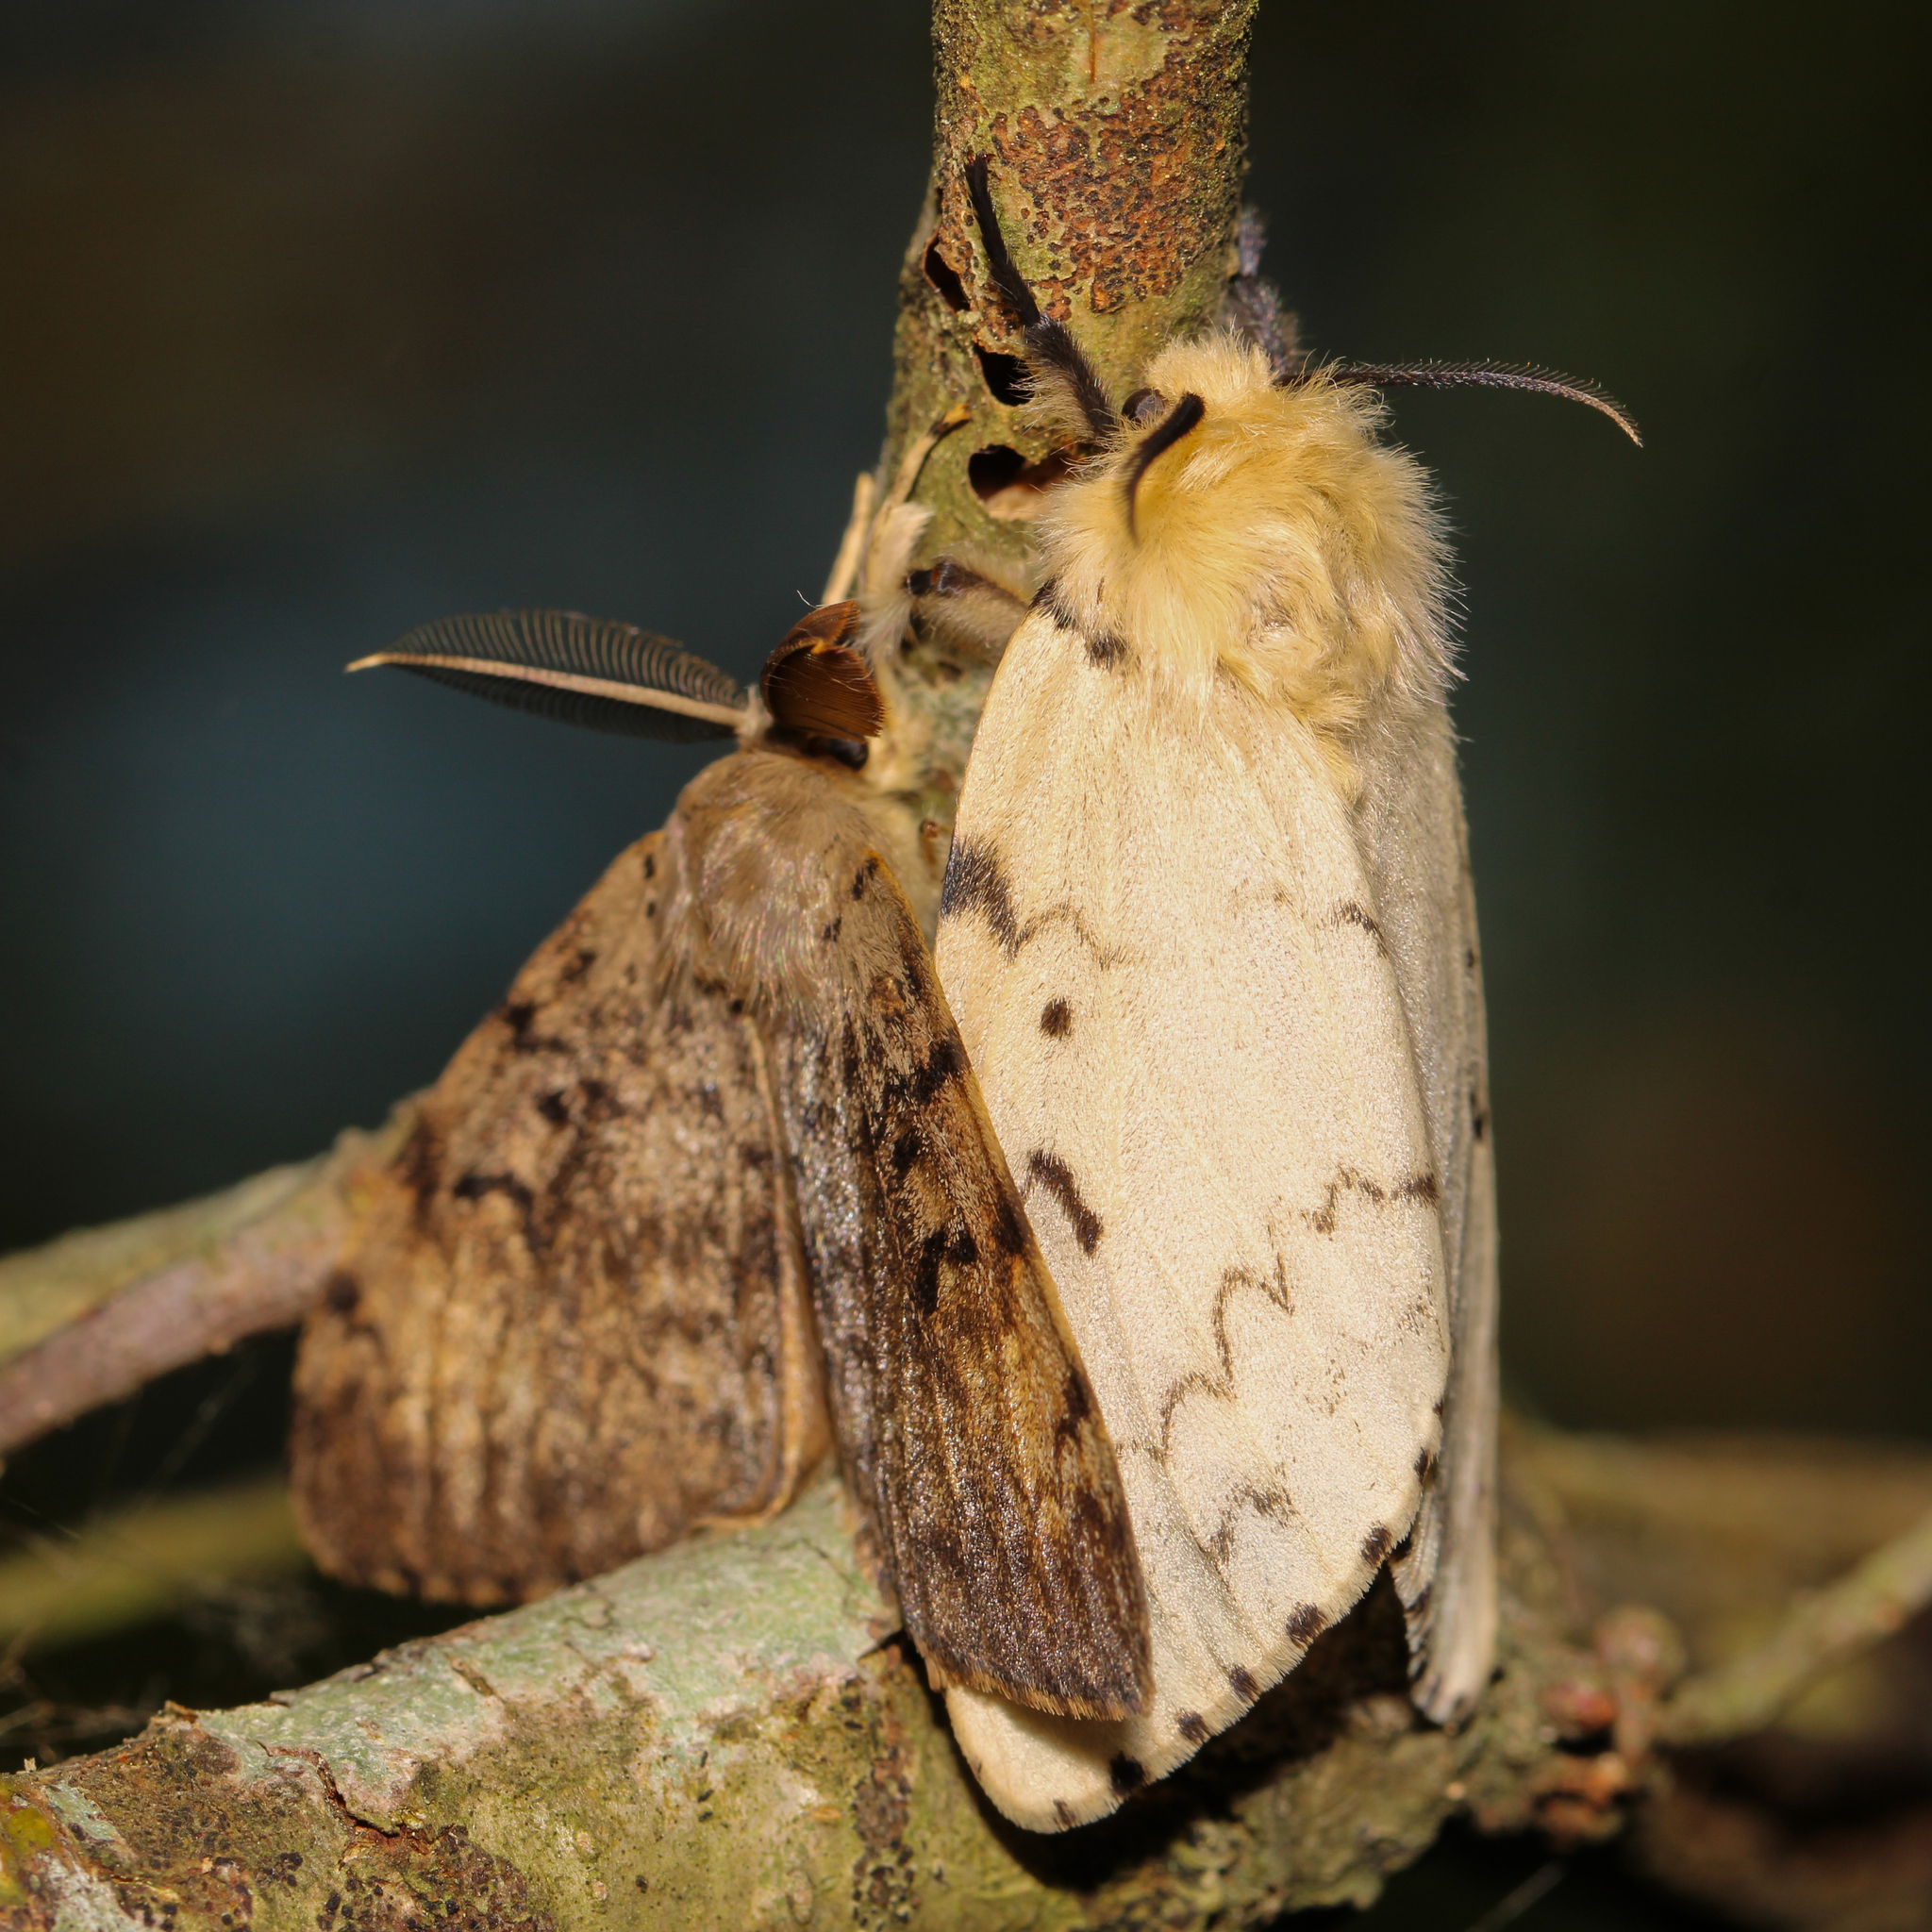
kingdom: Animalia
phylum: Arthropoda
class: Insecta
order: Lepidoptera
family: Erebidae
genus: Lymantria
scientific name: Lymantria dispar
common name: Gypsy moth
